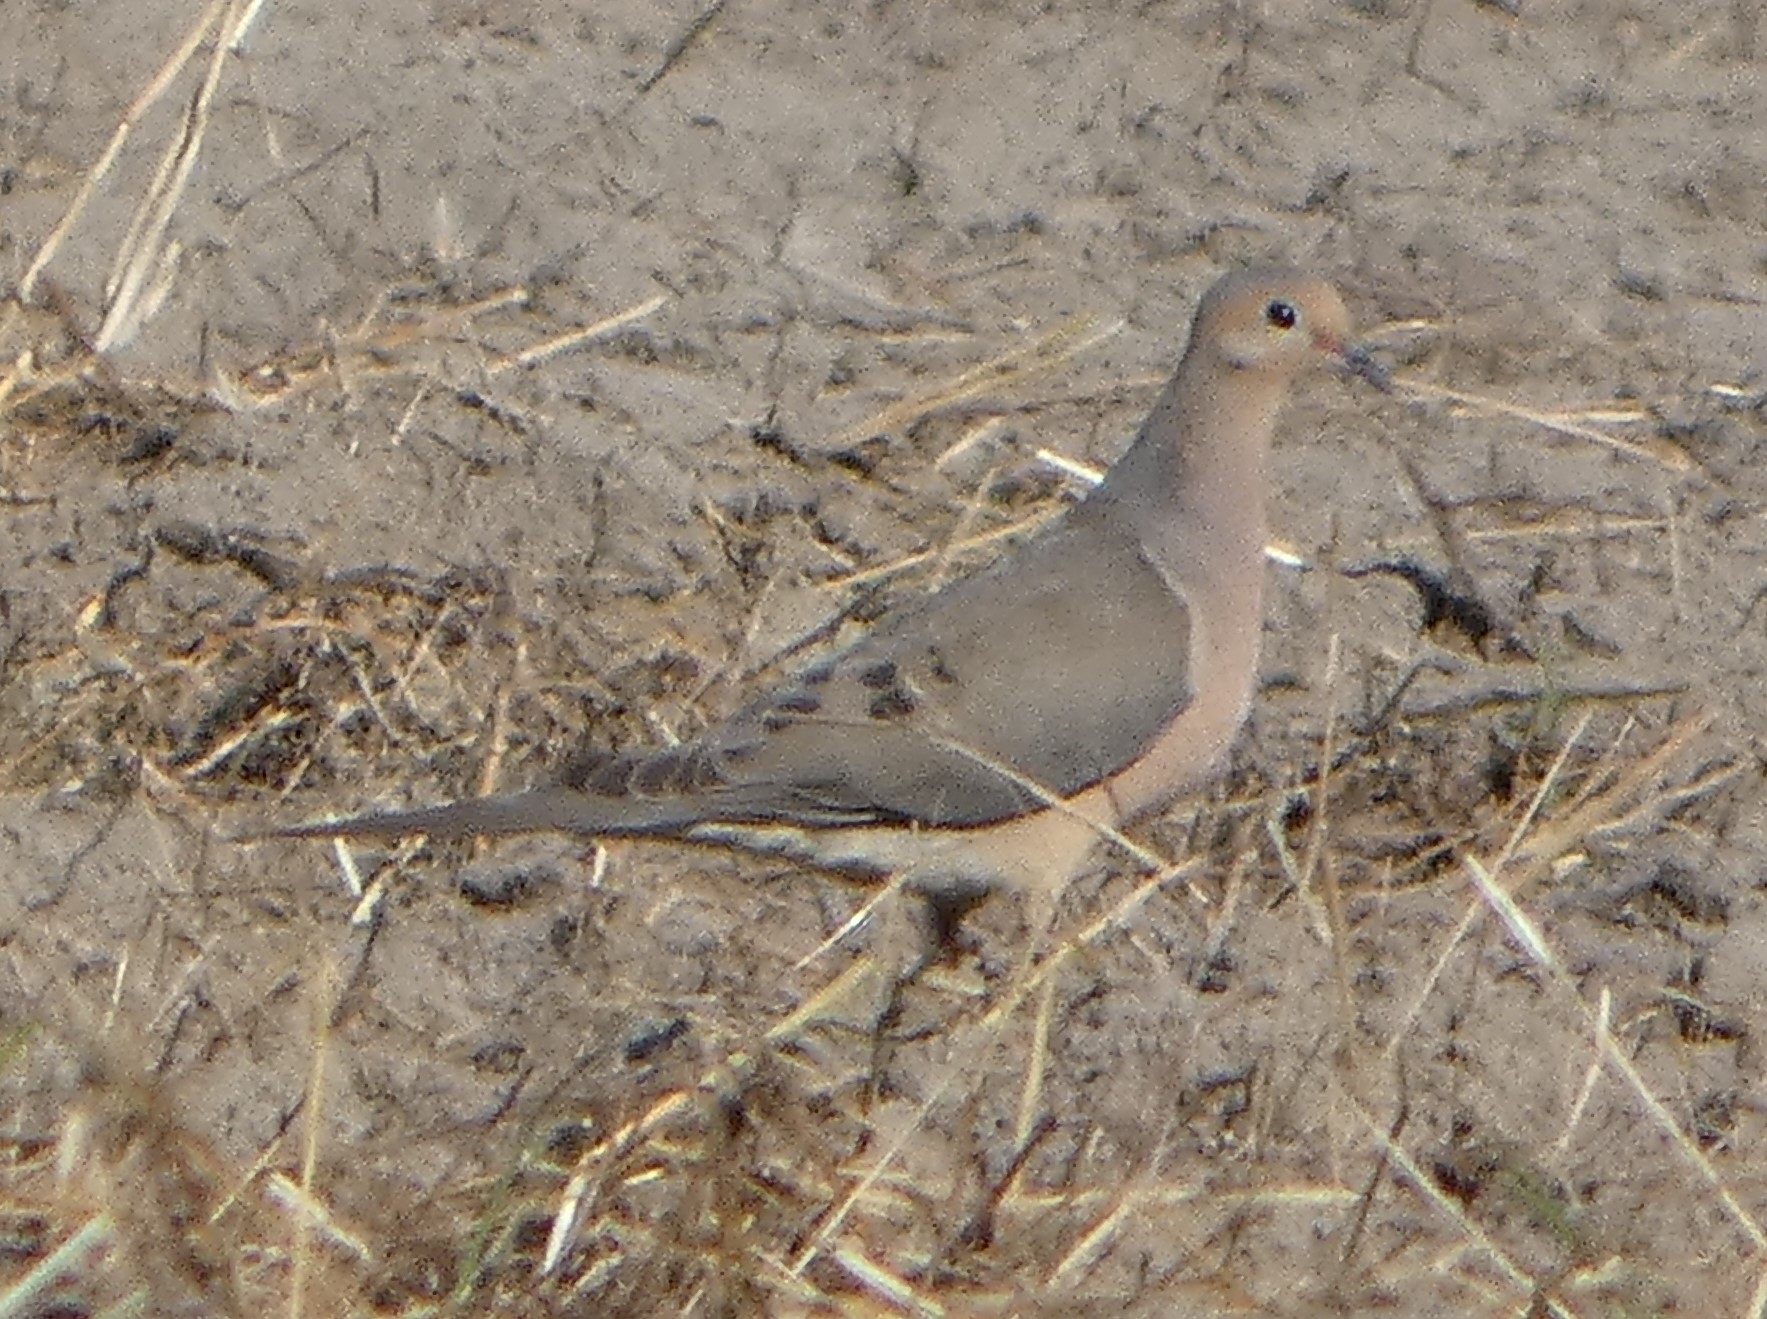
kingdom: Animalia
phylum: Chordata
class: Aves
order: Columbiformes
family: Columbidae
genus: Zenaida
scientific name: Zenaida macroura
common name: Mourning dove
